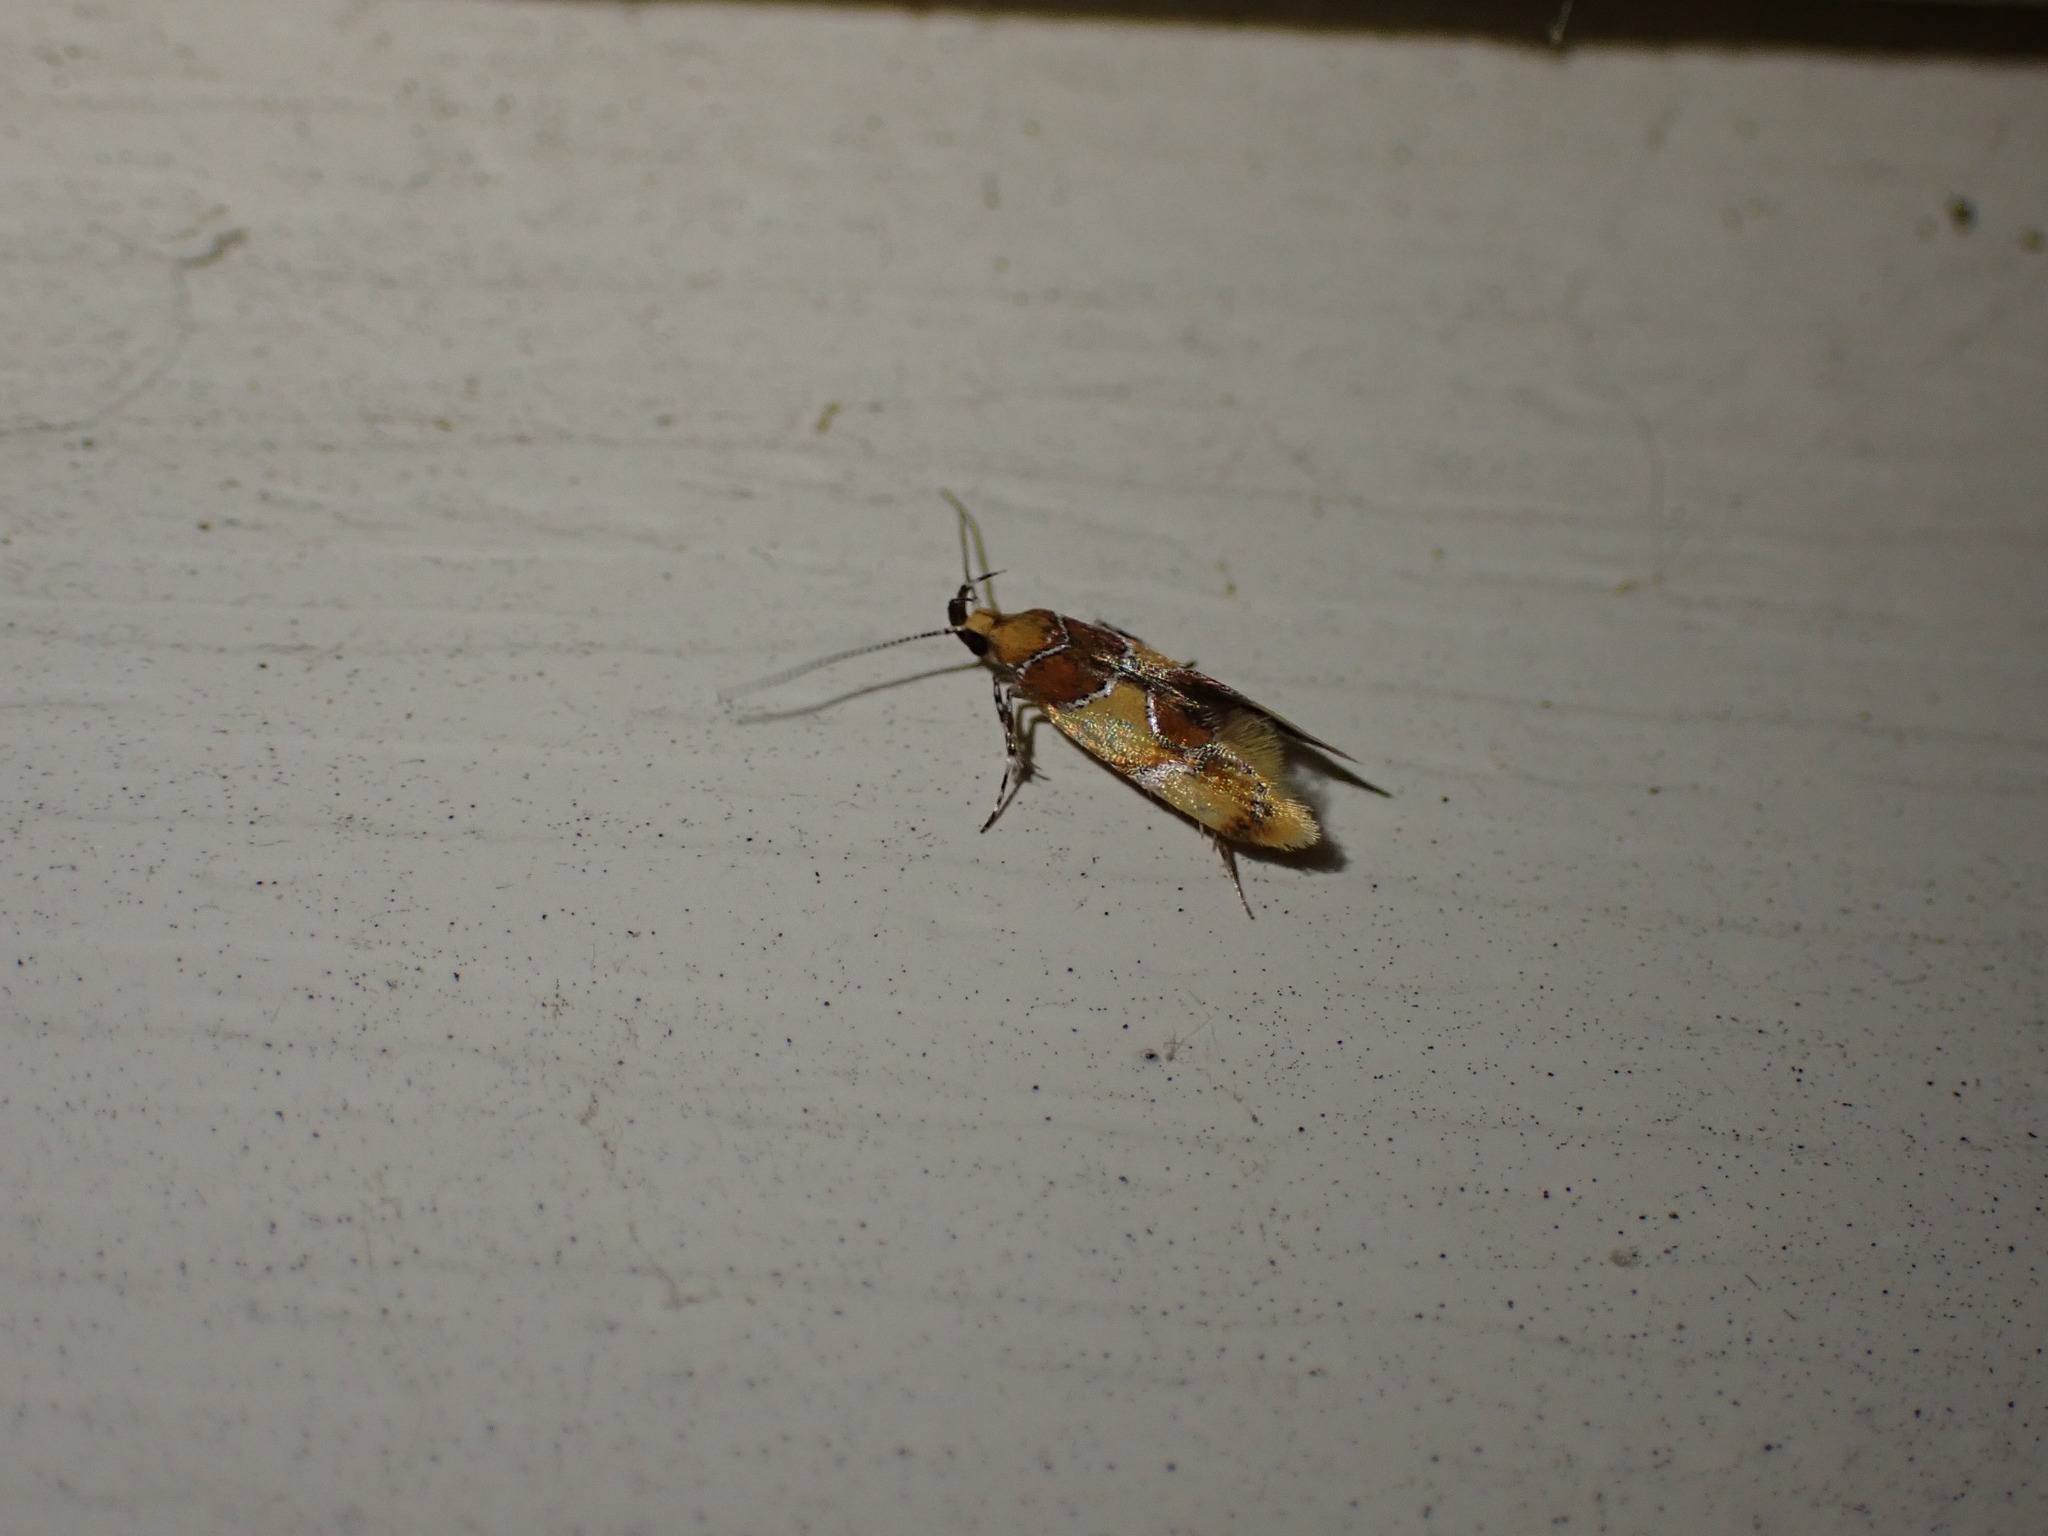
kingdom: Animalia
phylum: Arthropoda
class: Insecta
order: Lepidoptera
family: Oecophoridae
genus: Callima
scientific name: Callima argenticinctella
